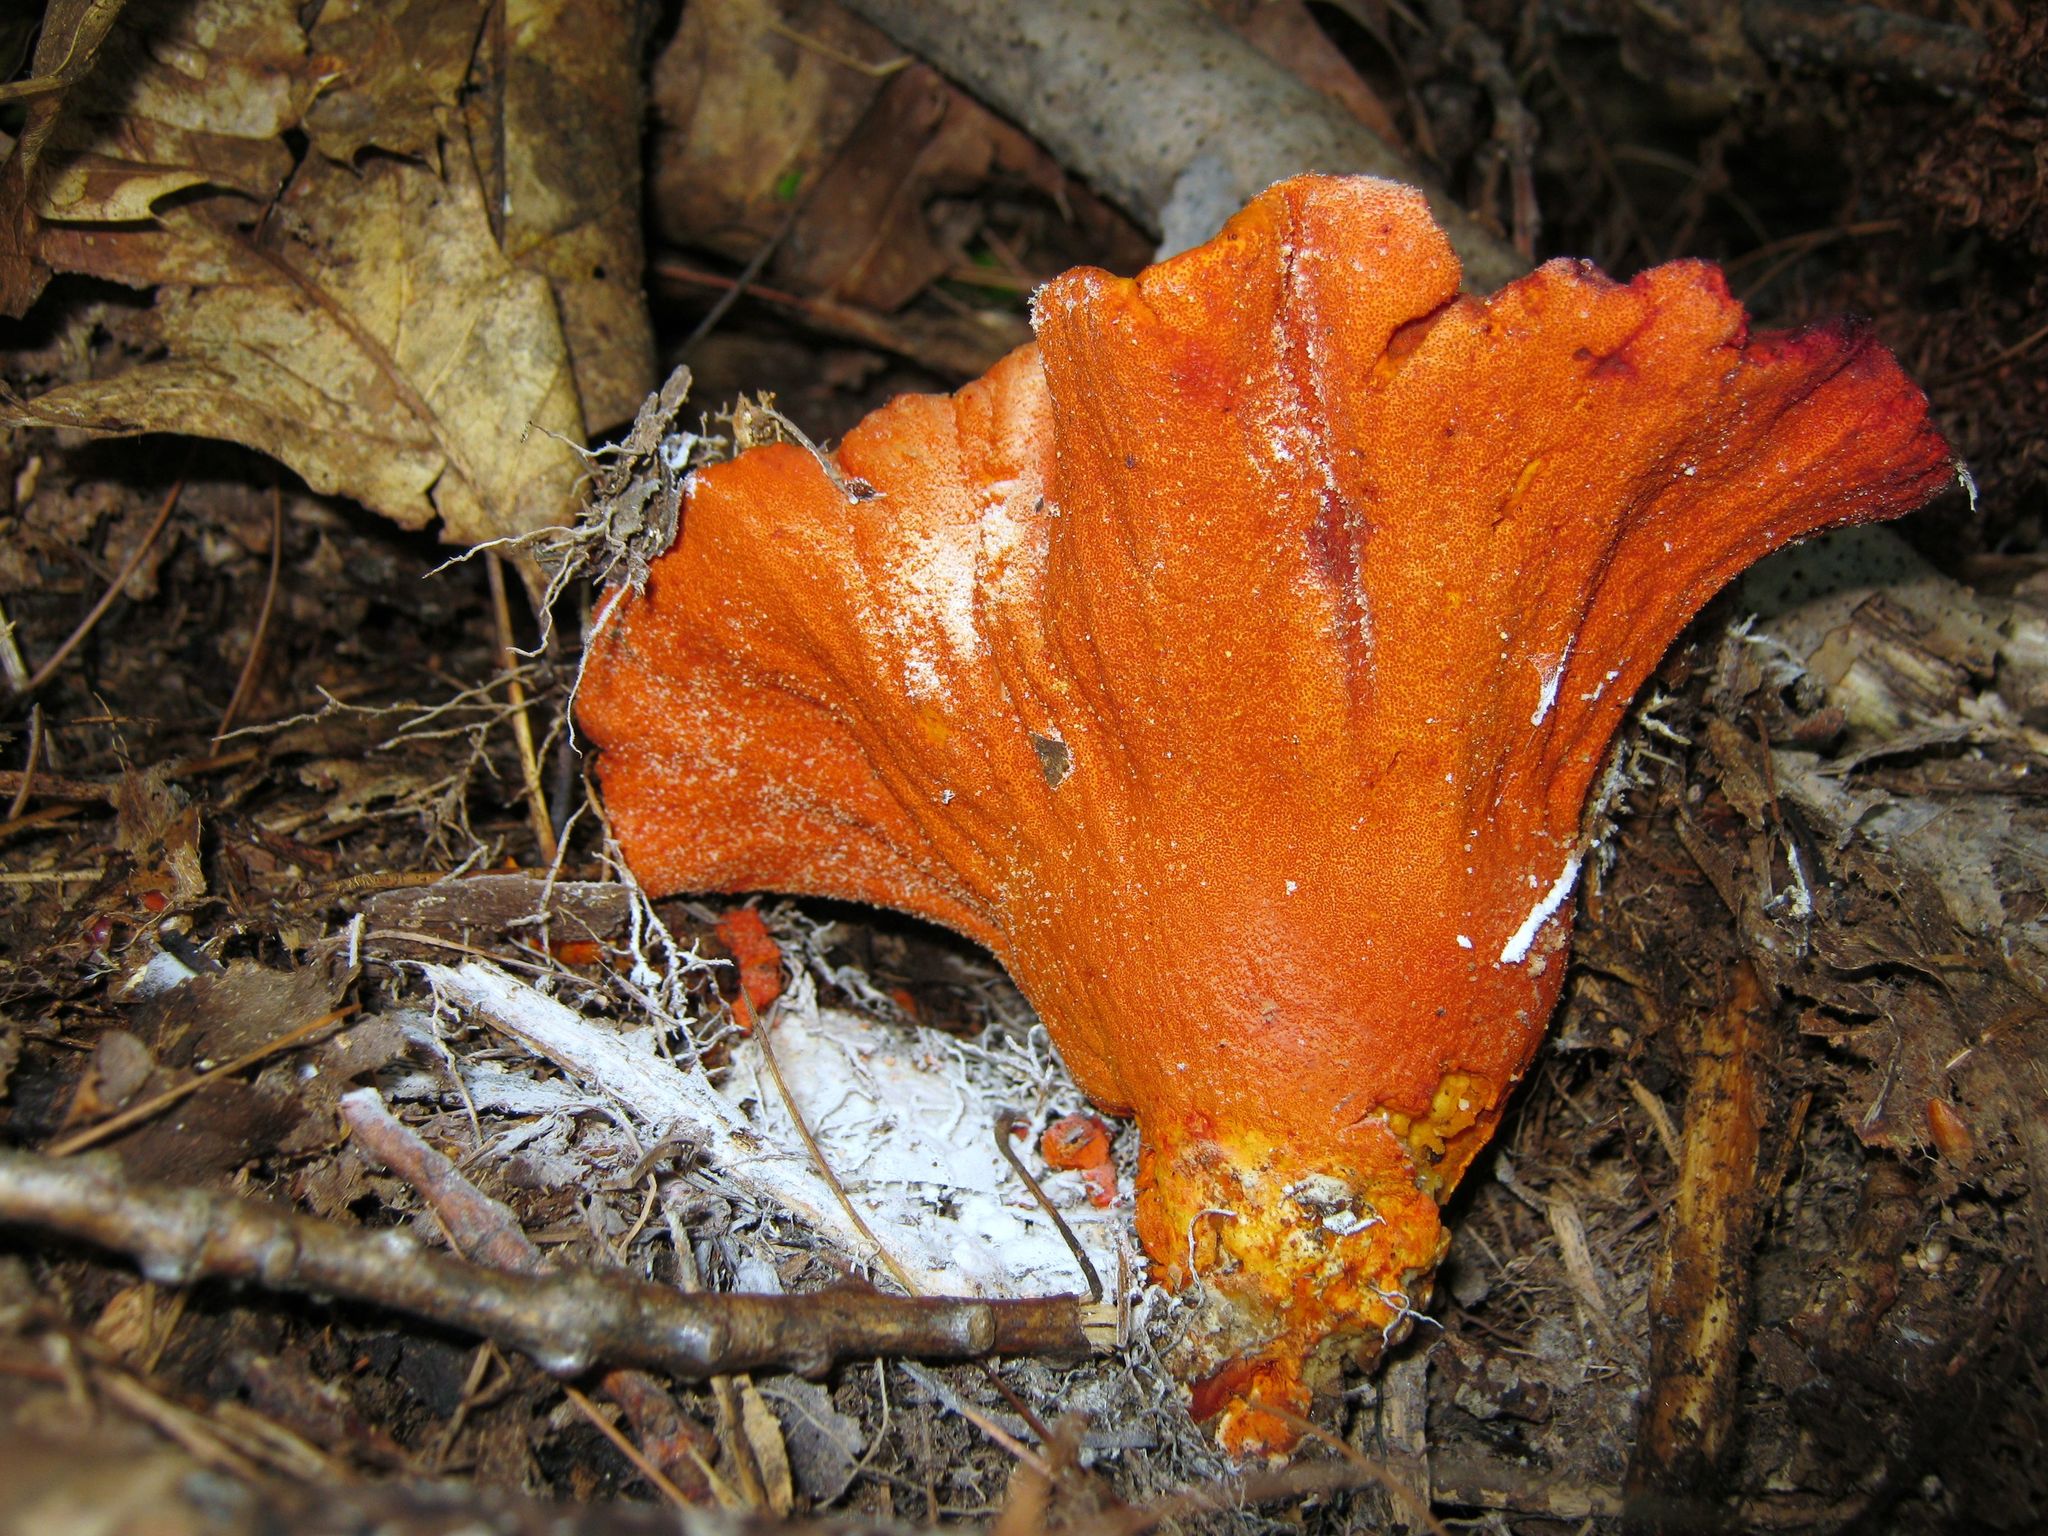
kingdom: Fungi
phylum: Ascomycota
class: Sordariomycetes
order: Hypocreales
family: Hypocreaceae
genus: Hypomyces
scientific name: Hypomyces lactifluorum
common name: Lobster mushroom
